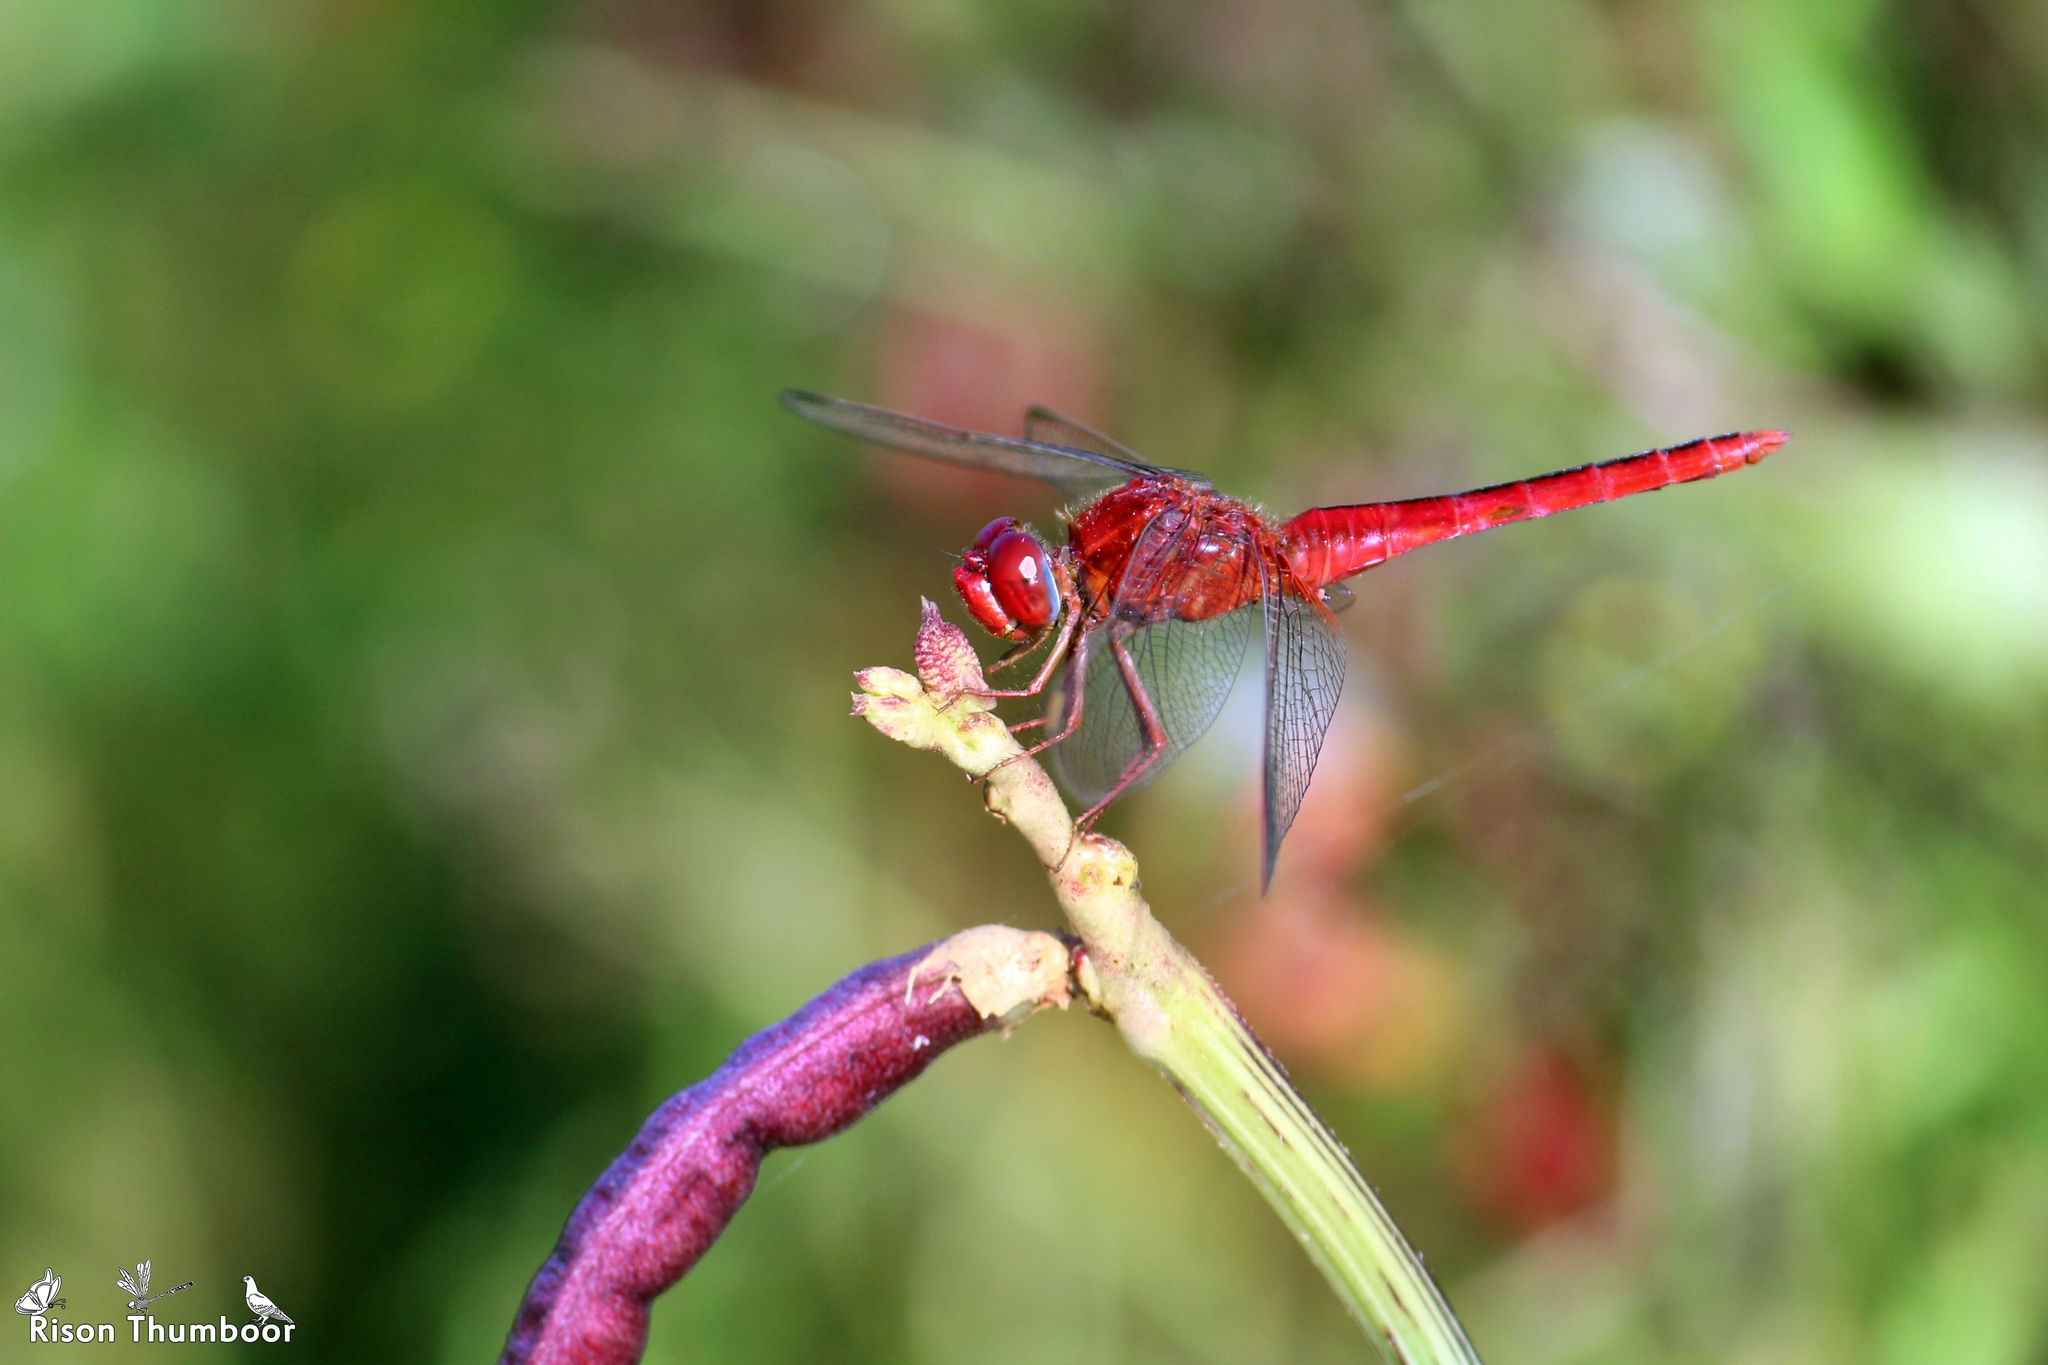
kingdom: Animalia
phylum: Arthropoda
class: Insecta
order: Odonata
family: Libellulidae
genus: Crocothemis
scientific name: Crocothemis servilia
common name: Scarlet skimmer
